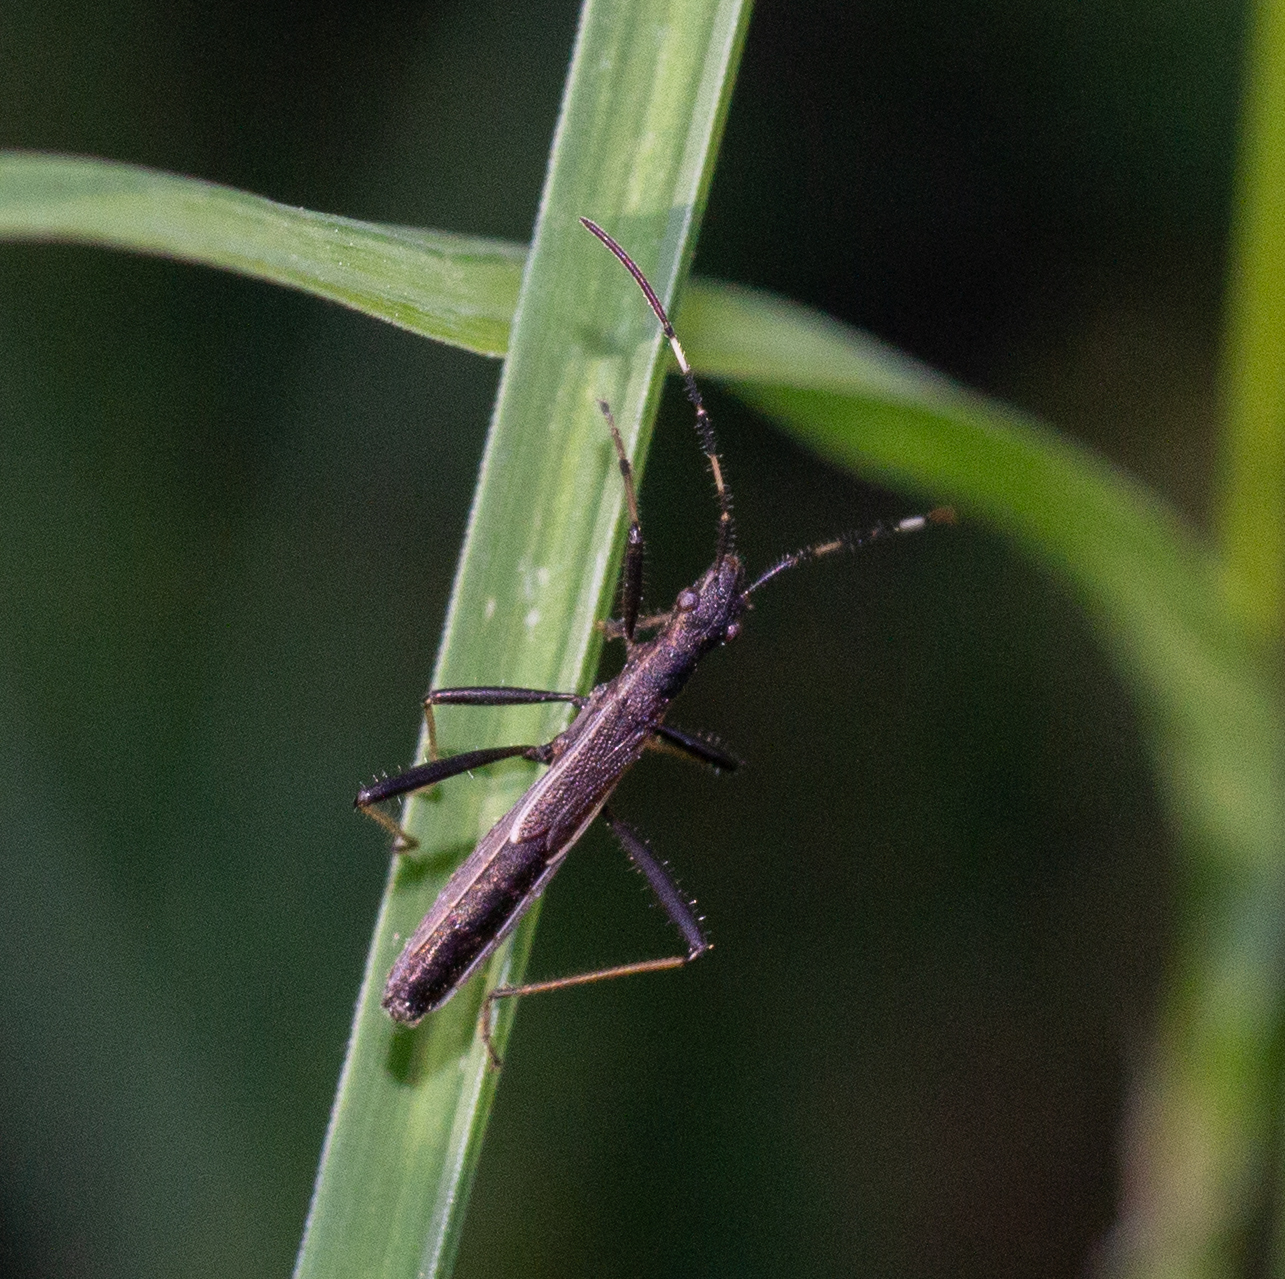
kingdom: Animalia
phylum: Arthropoda
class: Insecta
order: Hemiptera
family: Alydidae
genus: Micrelytra
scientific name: Micrelytra fossularum
